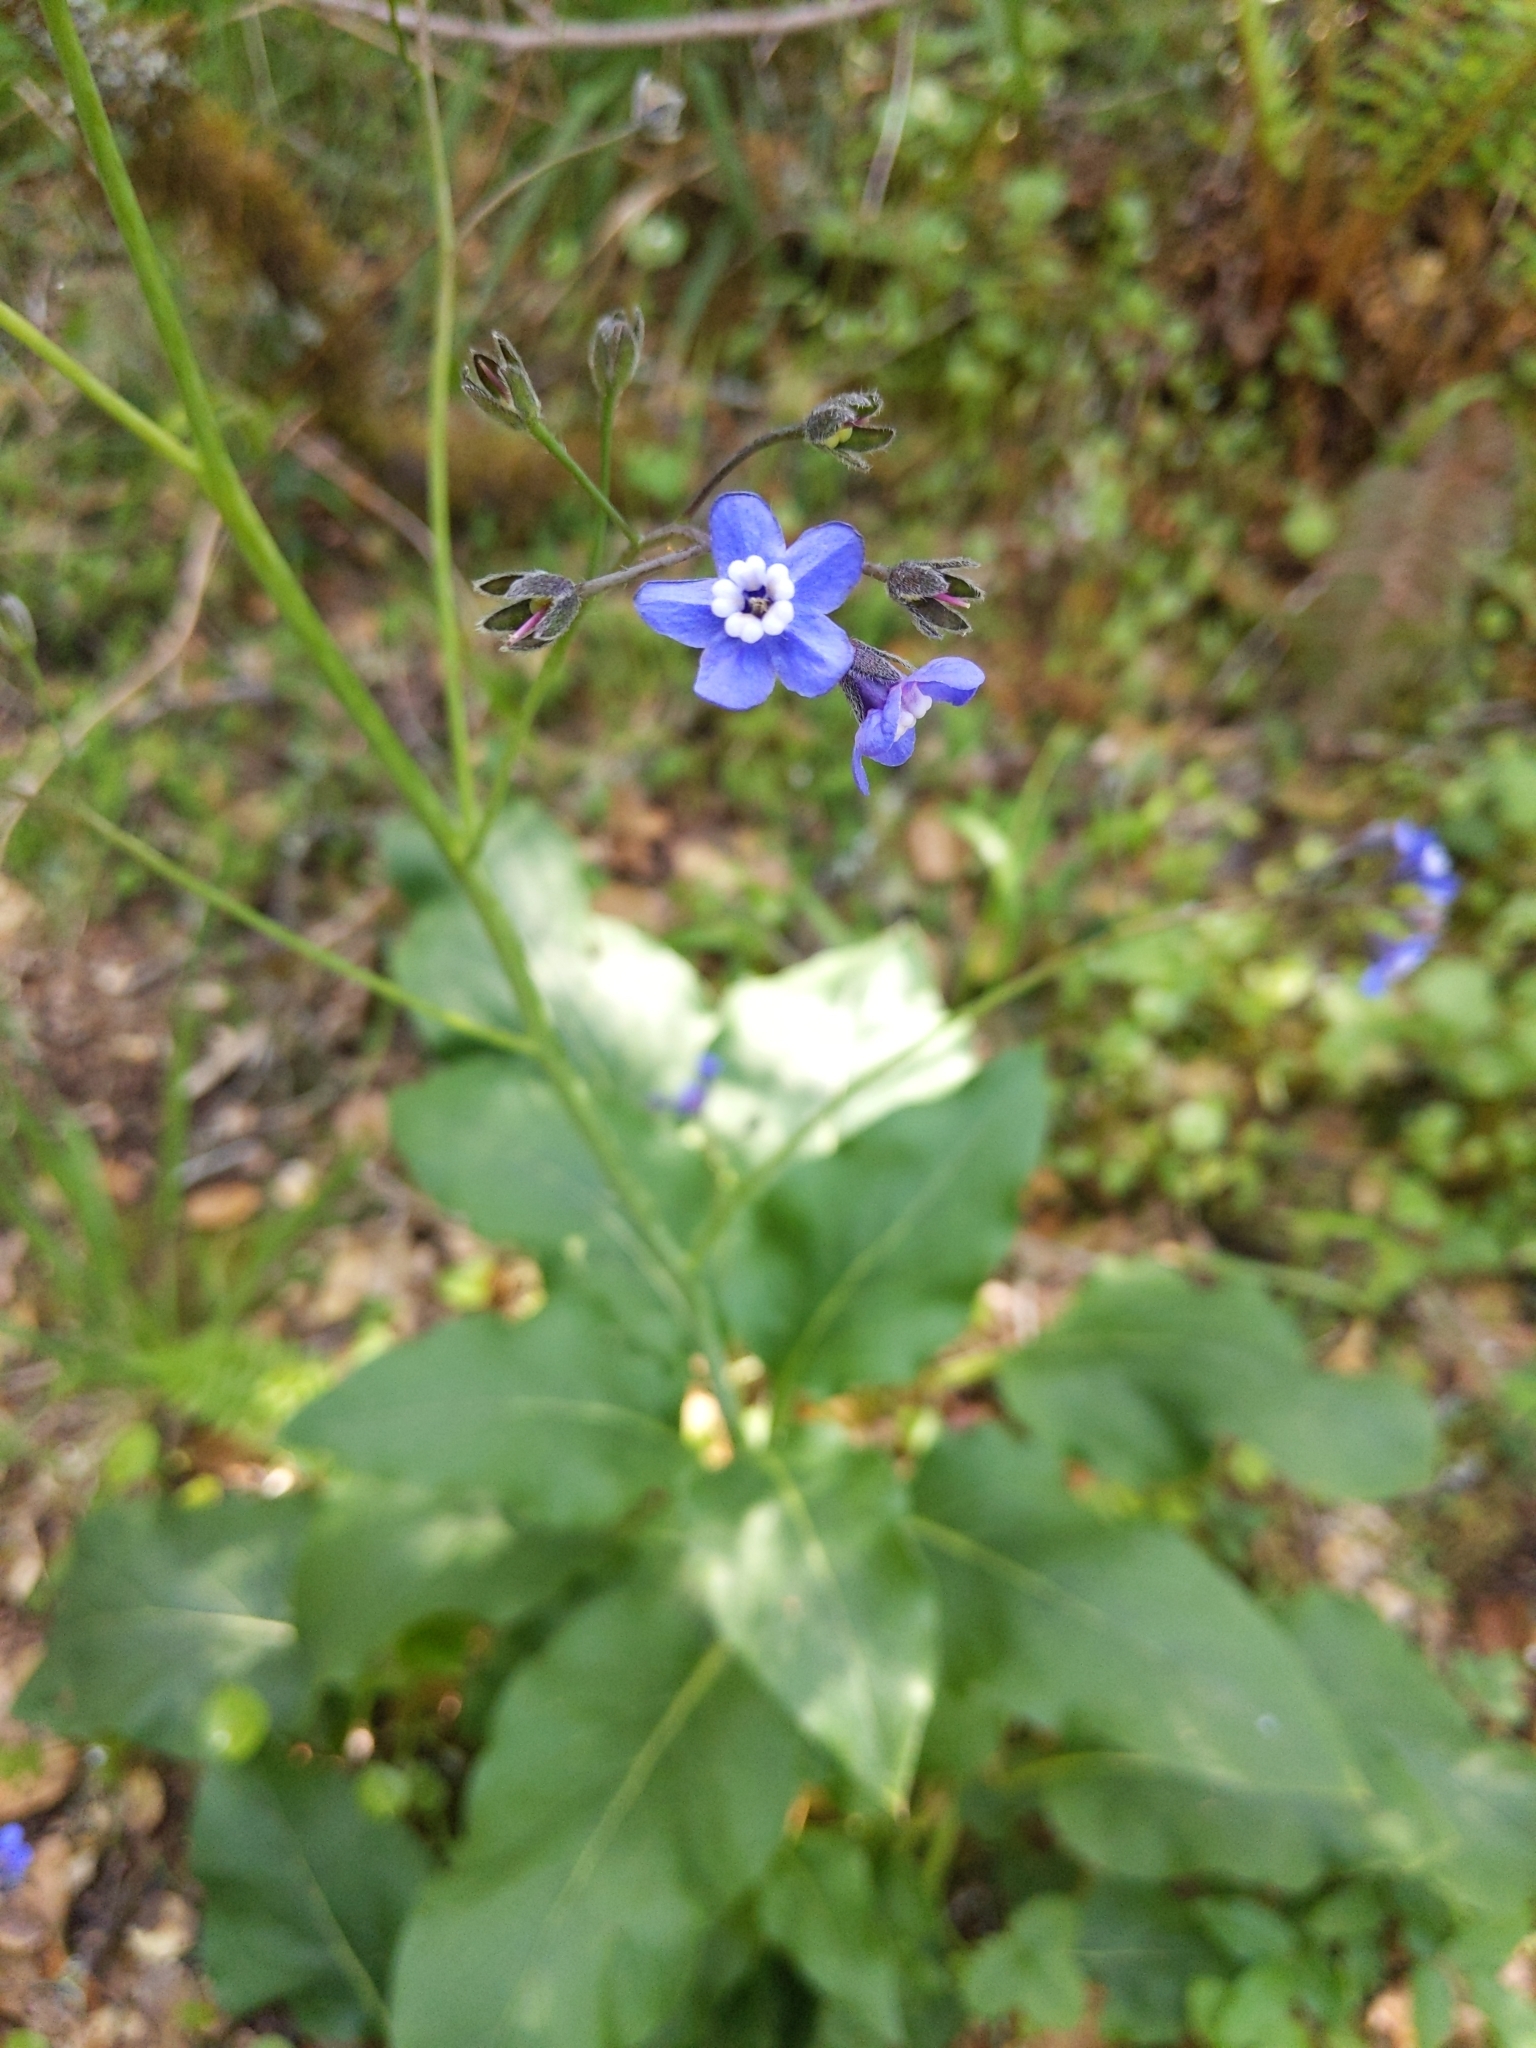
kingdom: Plantae
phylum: Tracheophyta
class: Magnoliopsida
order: Boraginales
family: Boraginaceae
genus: Adelinia
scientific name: Adelinia grande
